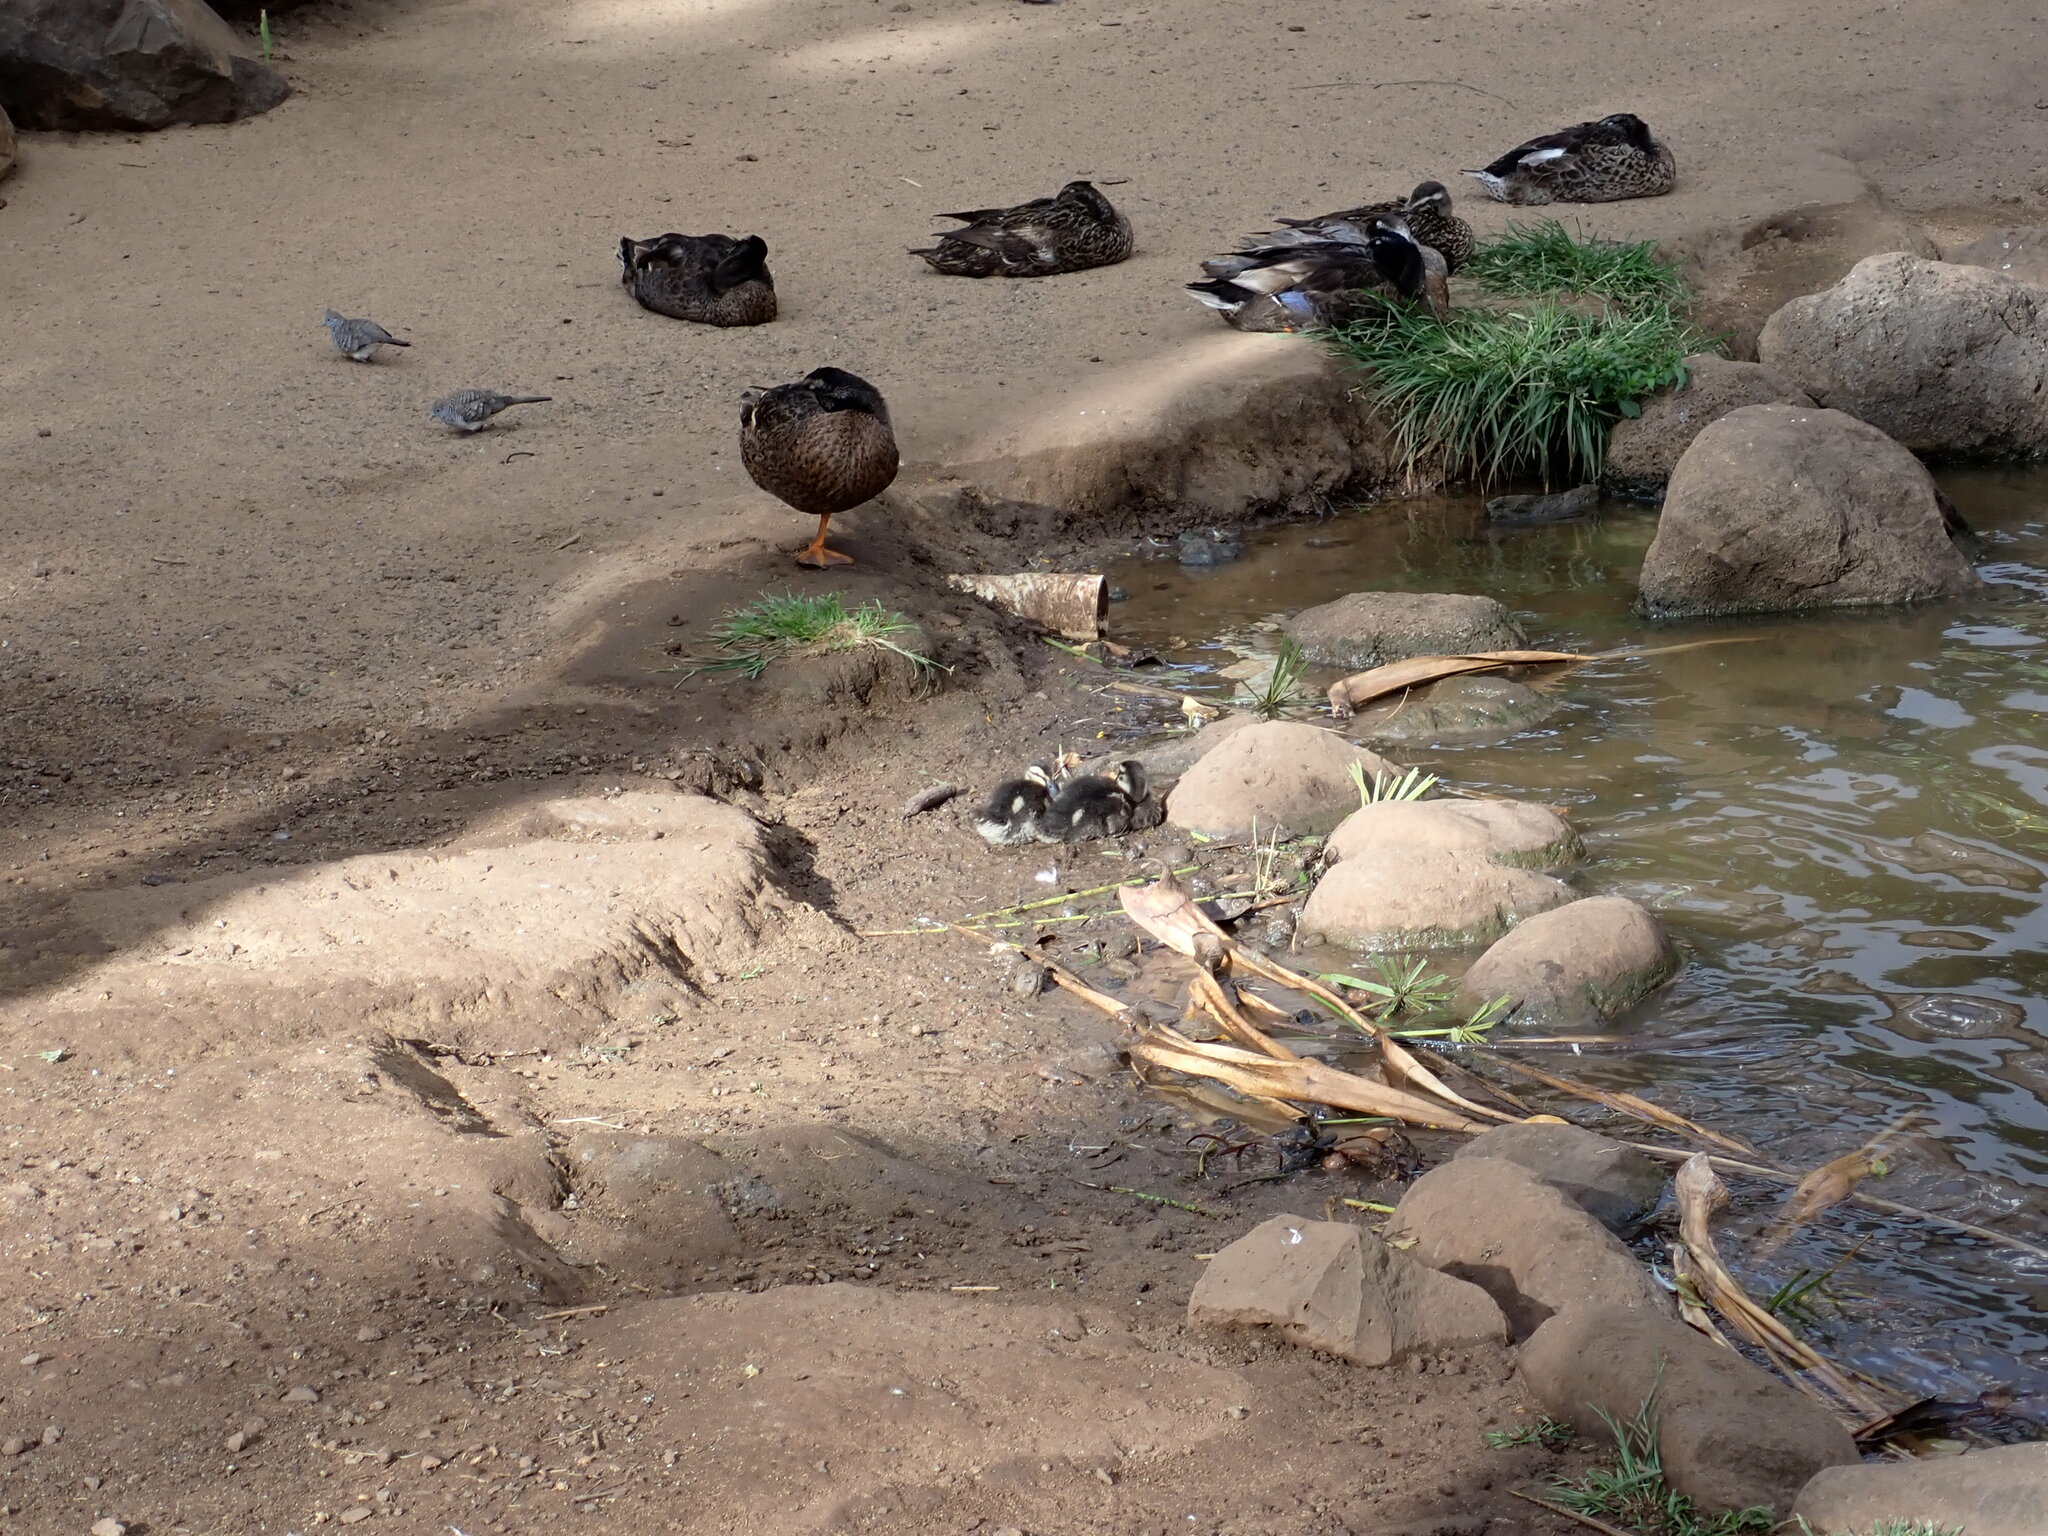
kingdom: Animalia
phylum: Chordata
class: Aves
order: Anseriformes
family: Anatidae
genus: Anas
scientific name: Anas platyrhynchos
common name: Mallard
